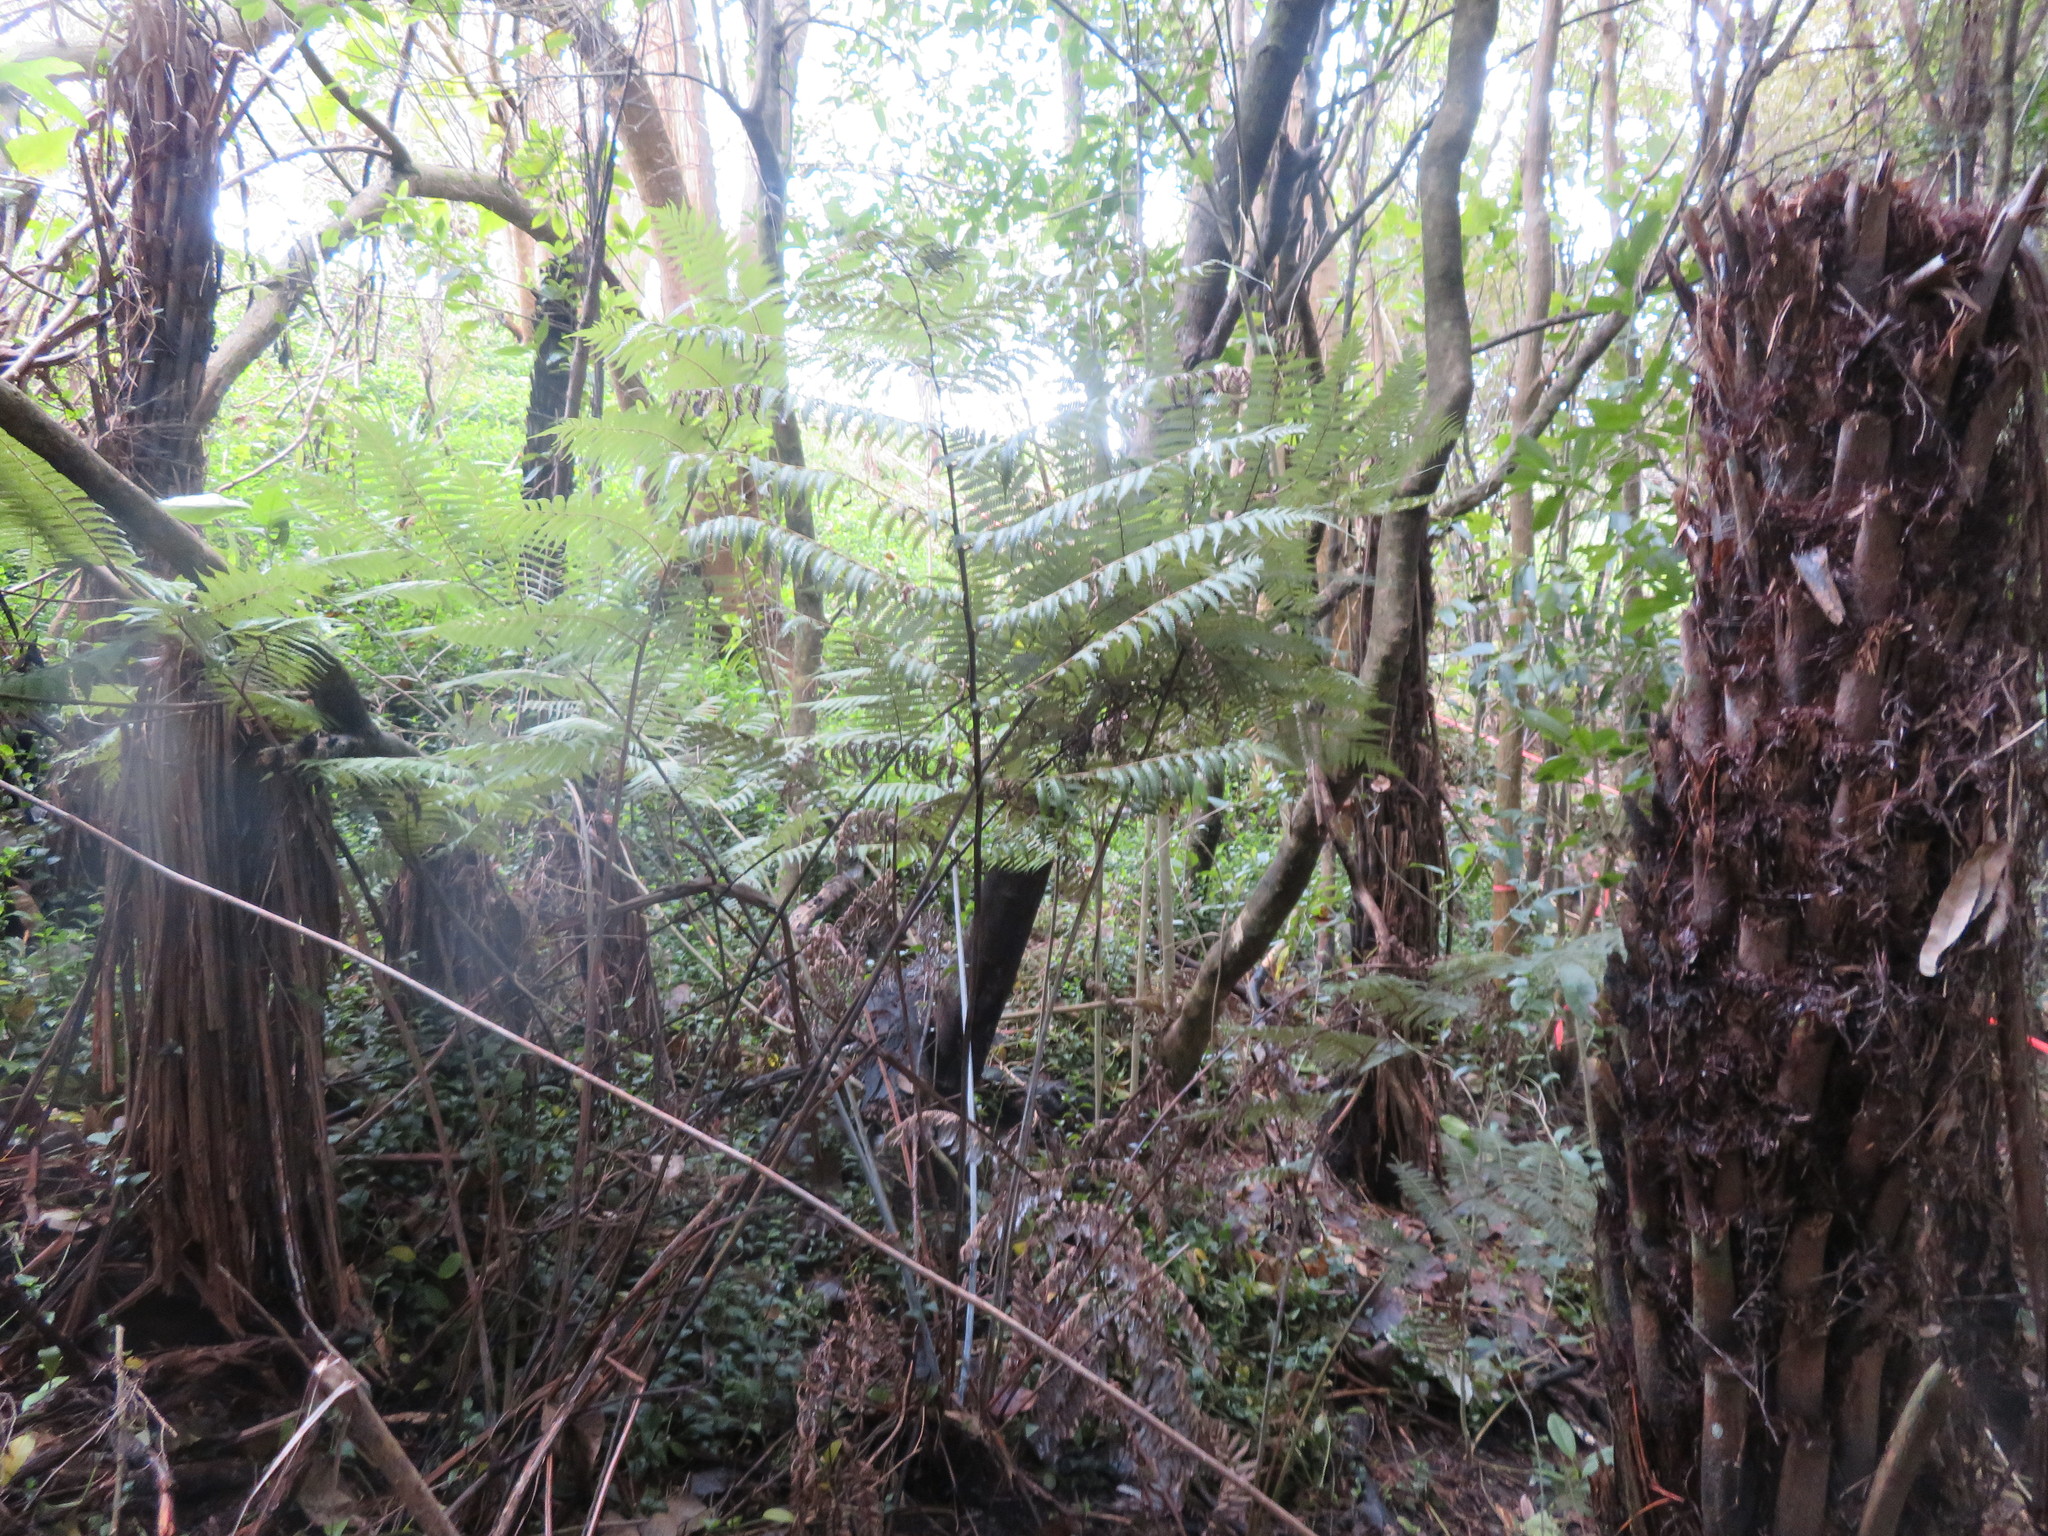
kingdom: Plantae
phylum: Tracheophyta
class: Liliopsida
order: Commelinales
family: Commelinaceae
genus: Tradescantia
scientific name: Tradescantia fluminensis
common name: Wandering-jew
